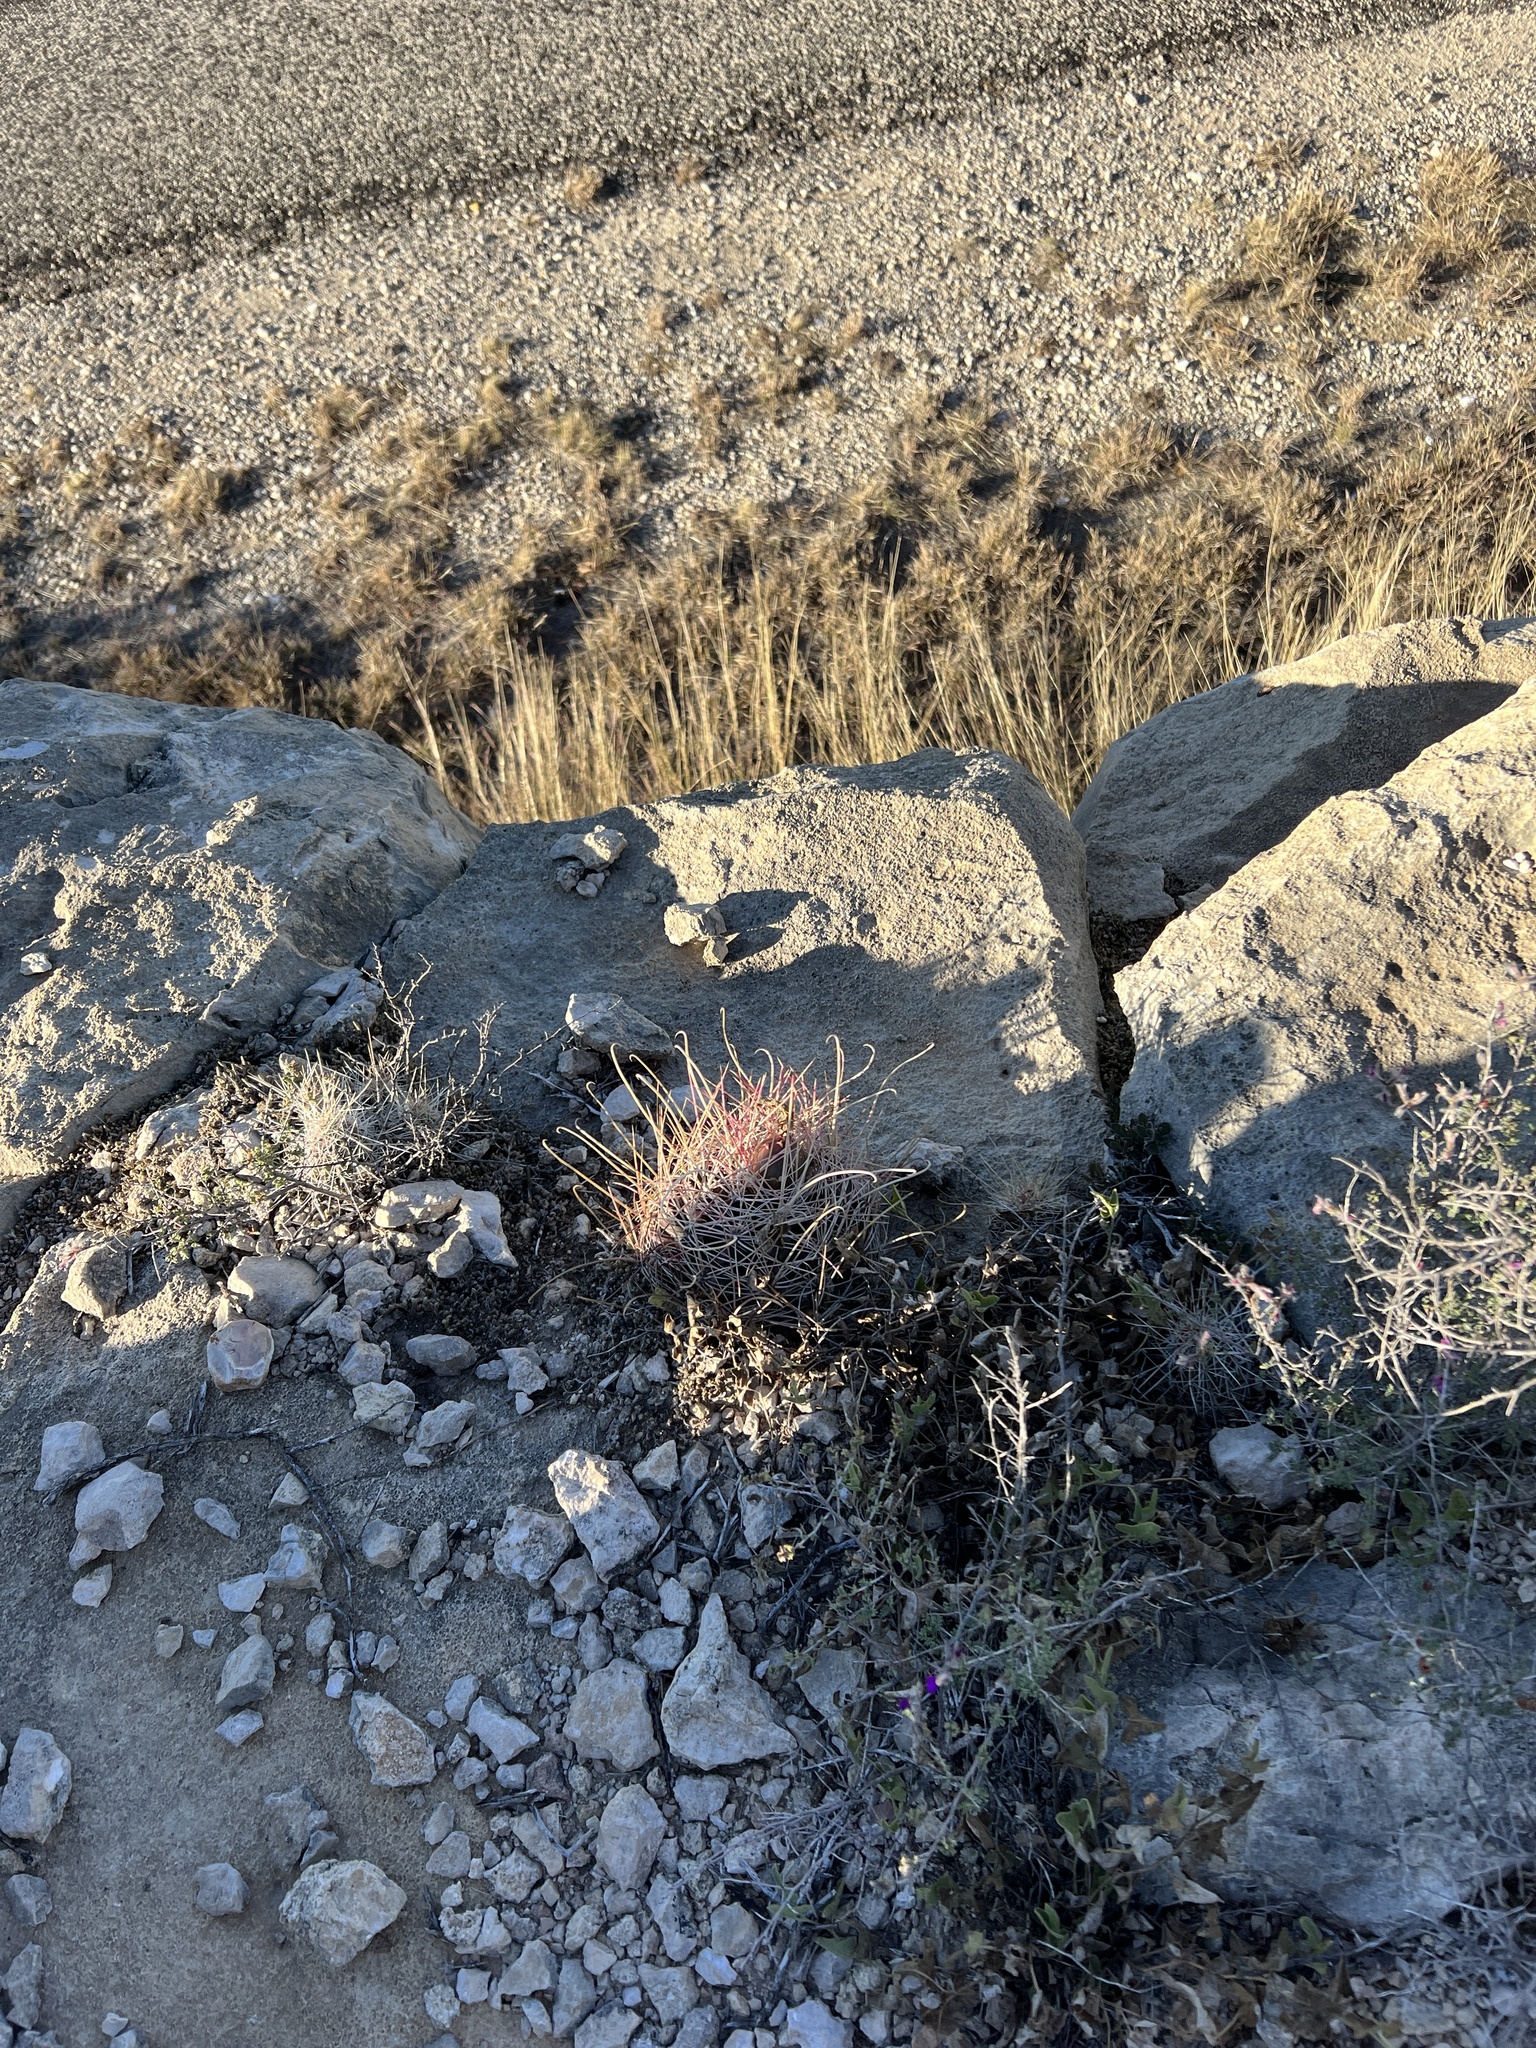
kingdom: Plantae
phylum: Tracheophyta
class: Magnoliopsida
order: Caryophyllales
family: Cactaceae
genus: Bisnaga
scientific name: Bisnaga hamatacantha
